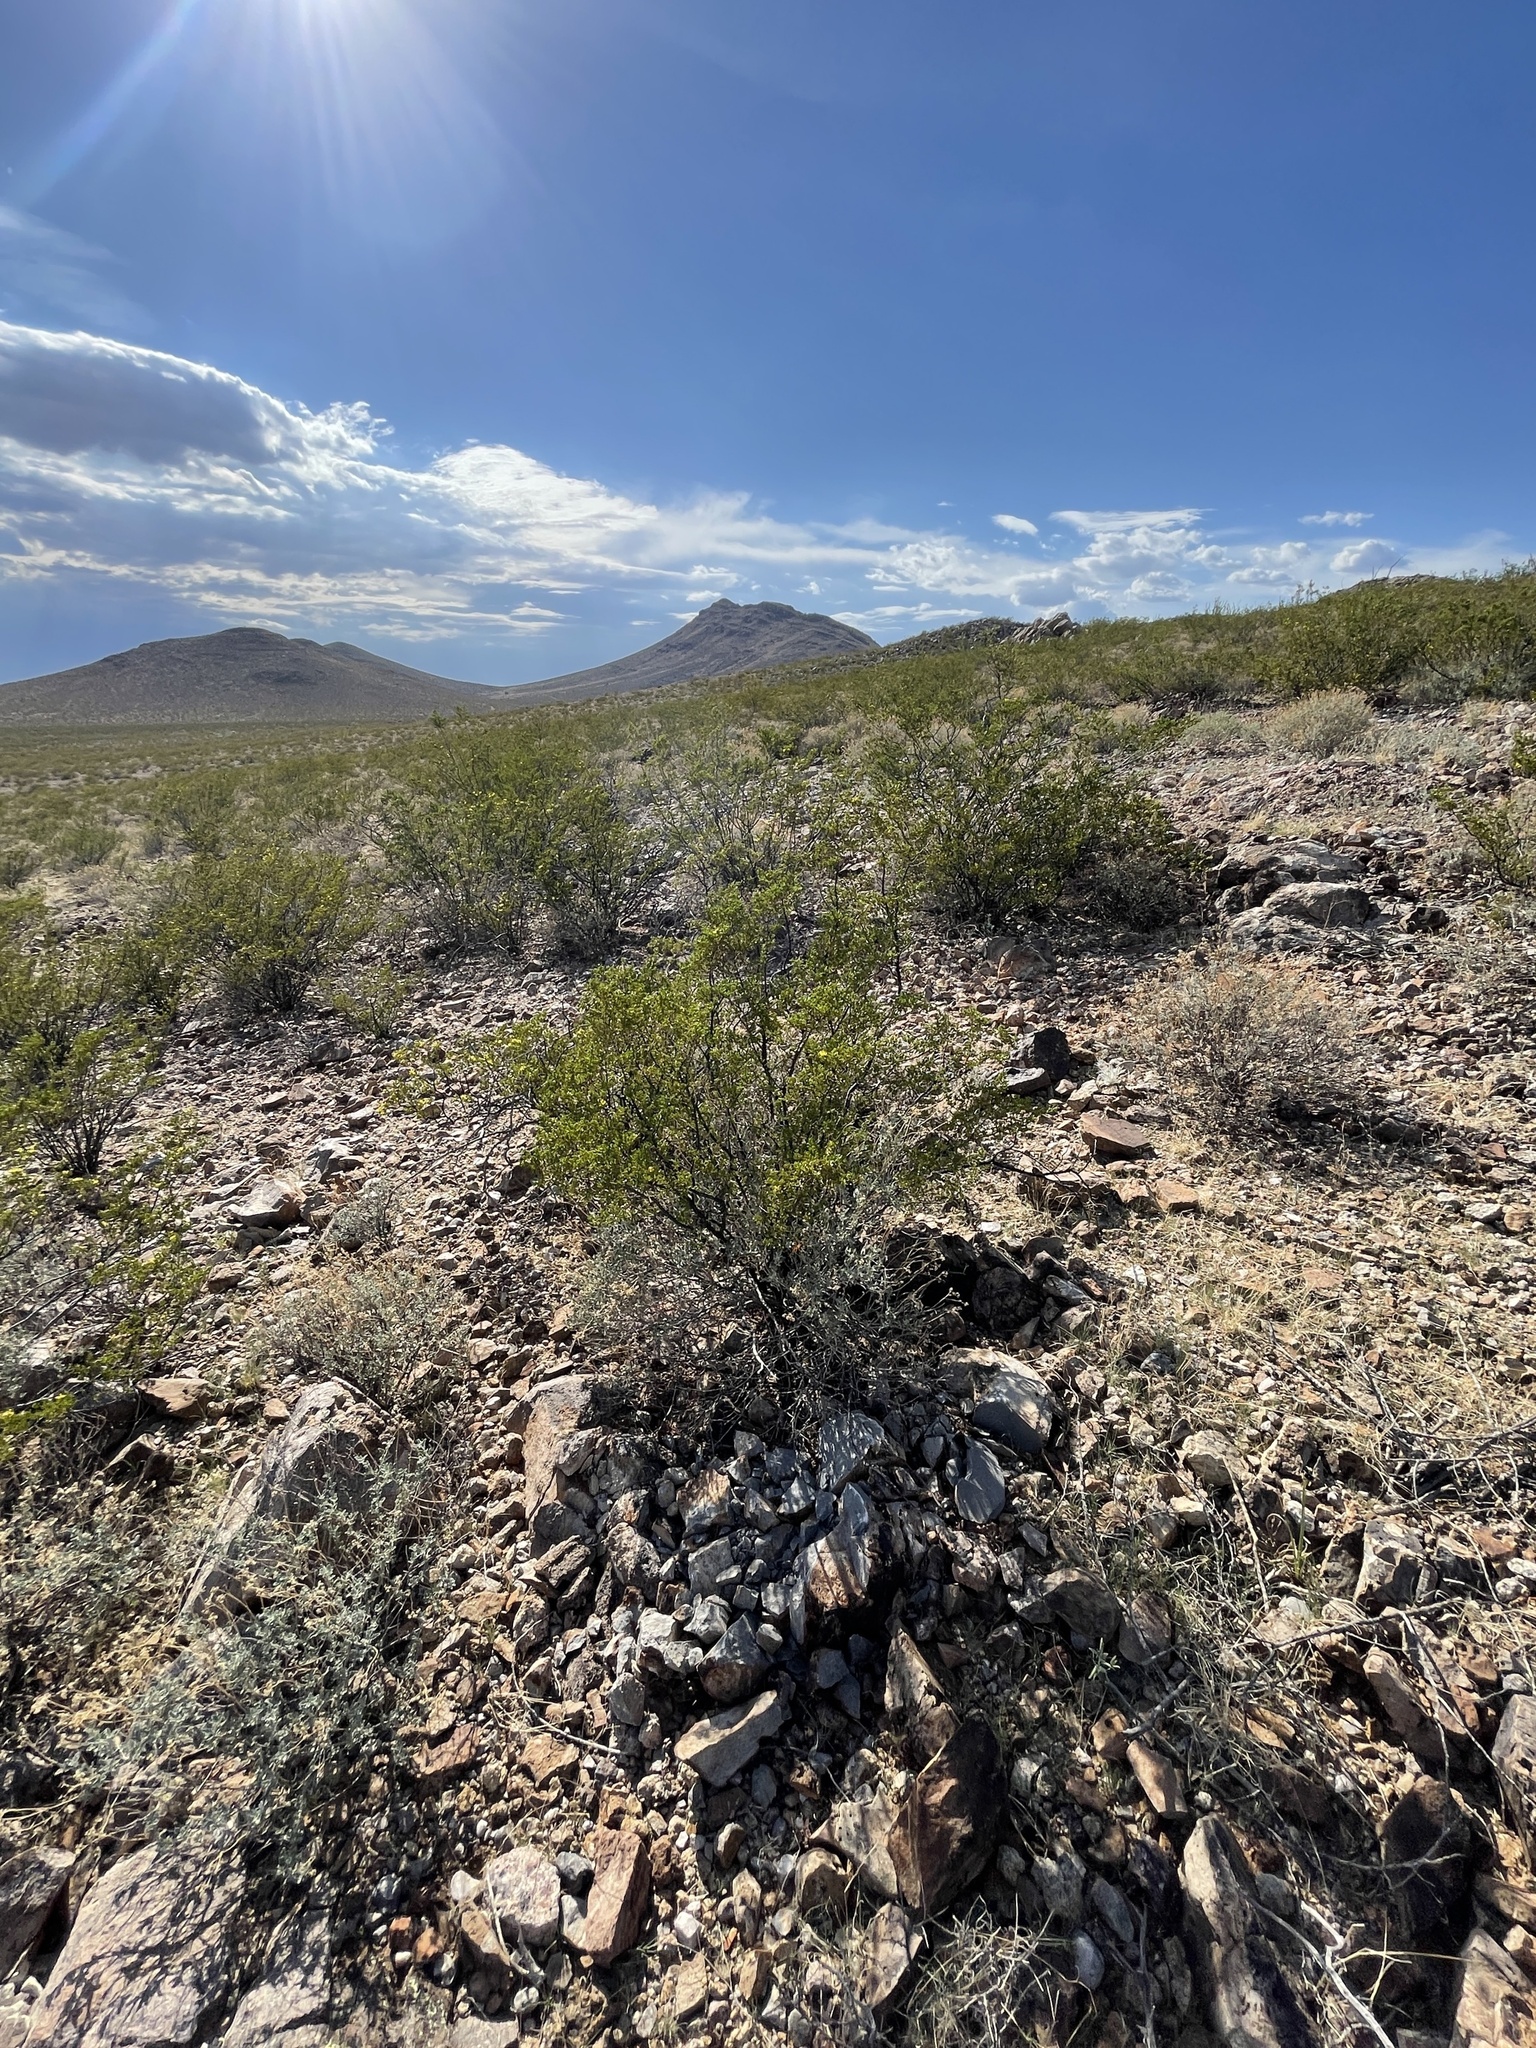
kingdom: Plantae
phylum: Tracheophyta
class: Magnoliopsida
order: Zygophyllales
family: Zygophyllaceae
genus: Larrea
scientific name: Larrea tridentata
